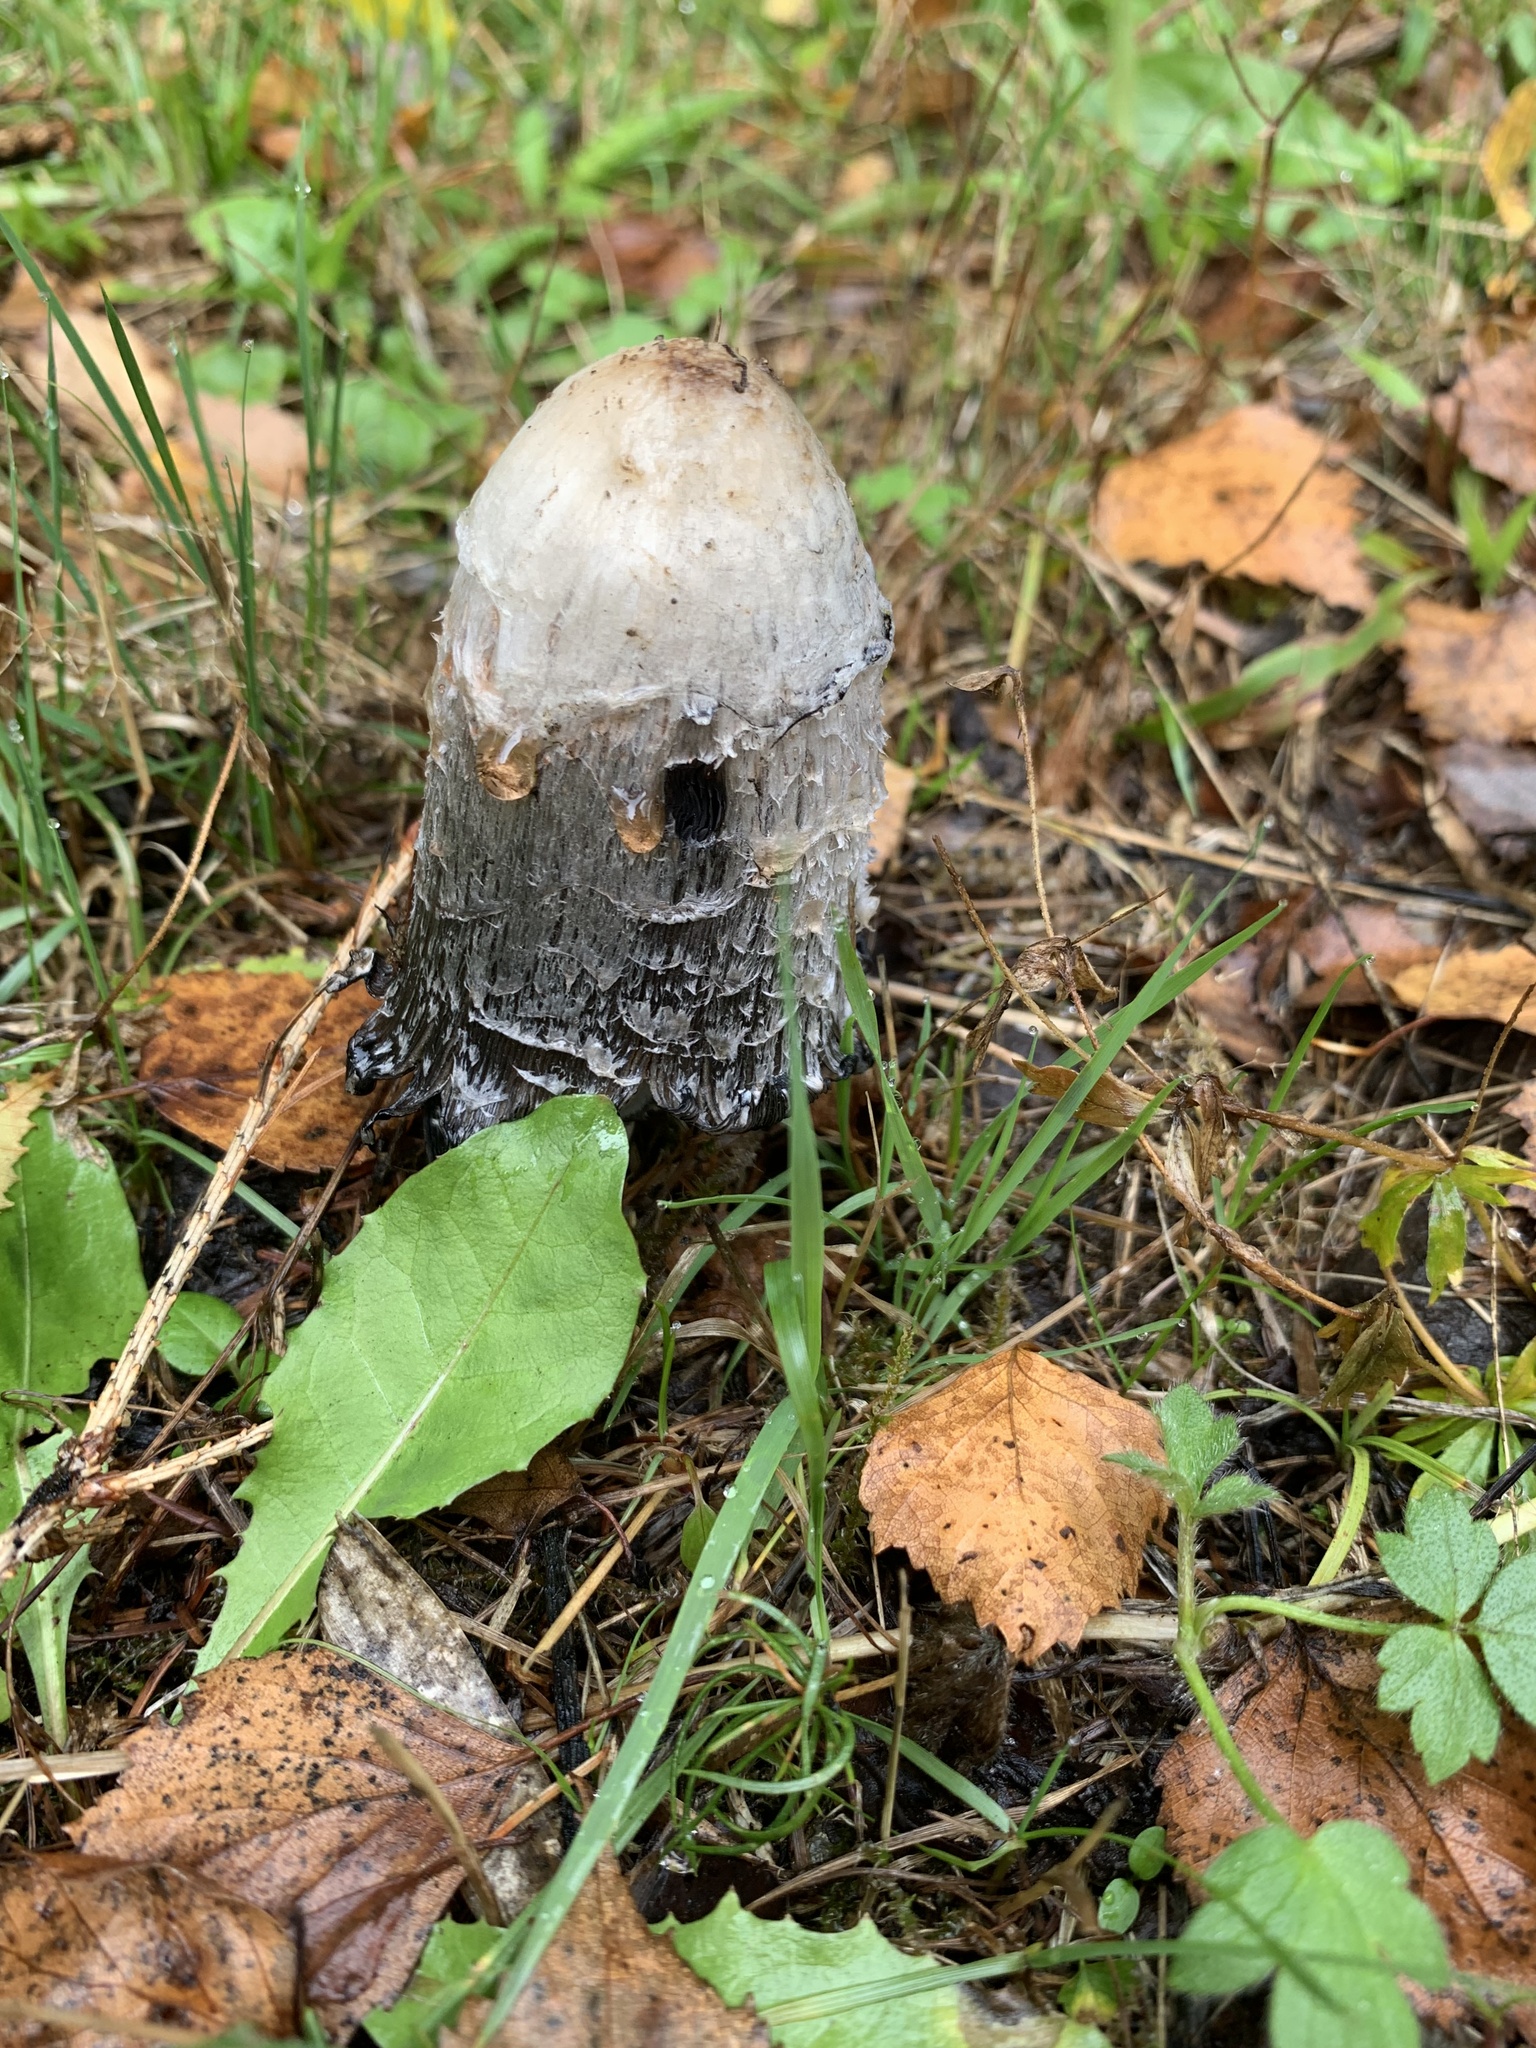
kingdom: Fungi
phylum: Basidiomycota
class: Agaricomycetes
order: Agaricales
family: Agaricaceae
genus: Coprinus
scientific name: Coprinus comatus
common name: Lawyer's wig
